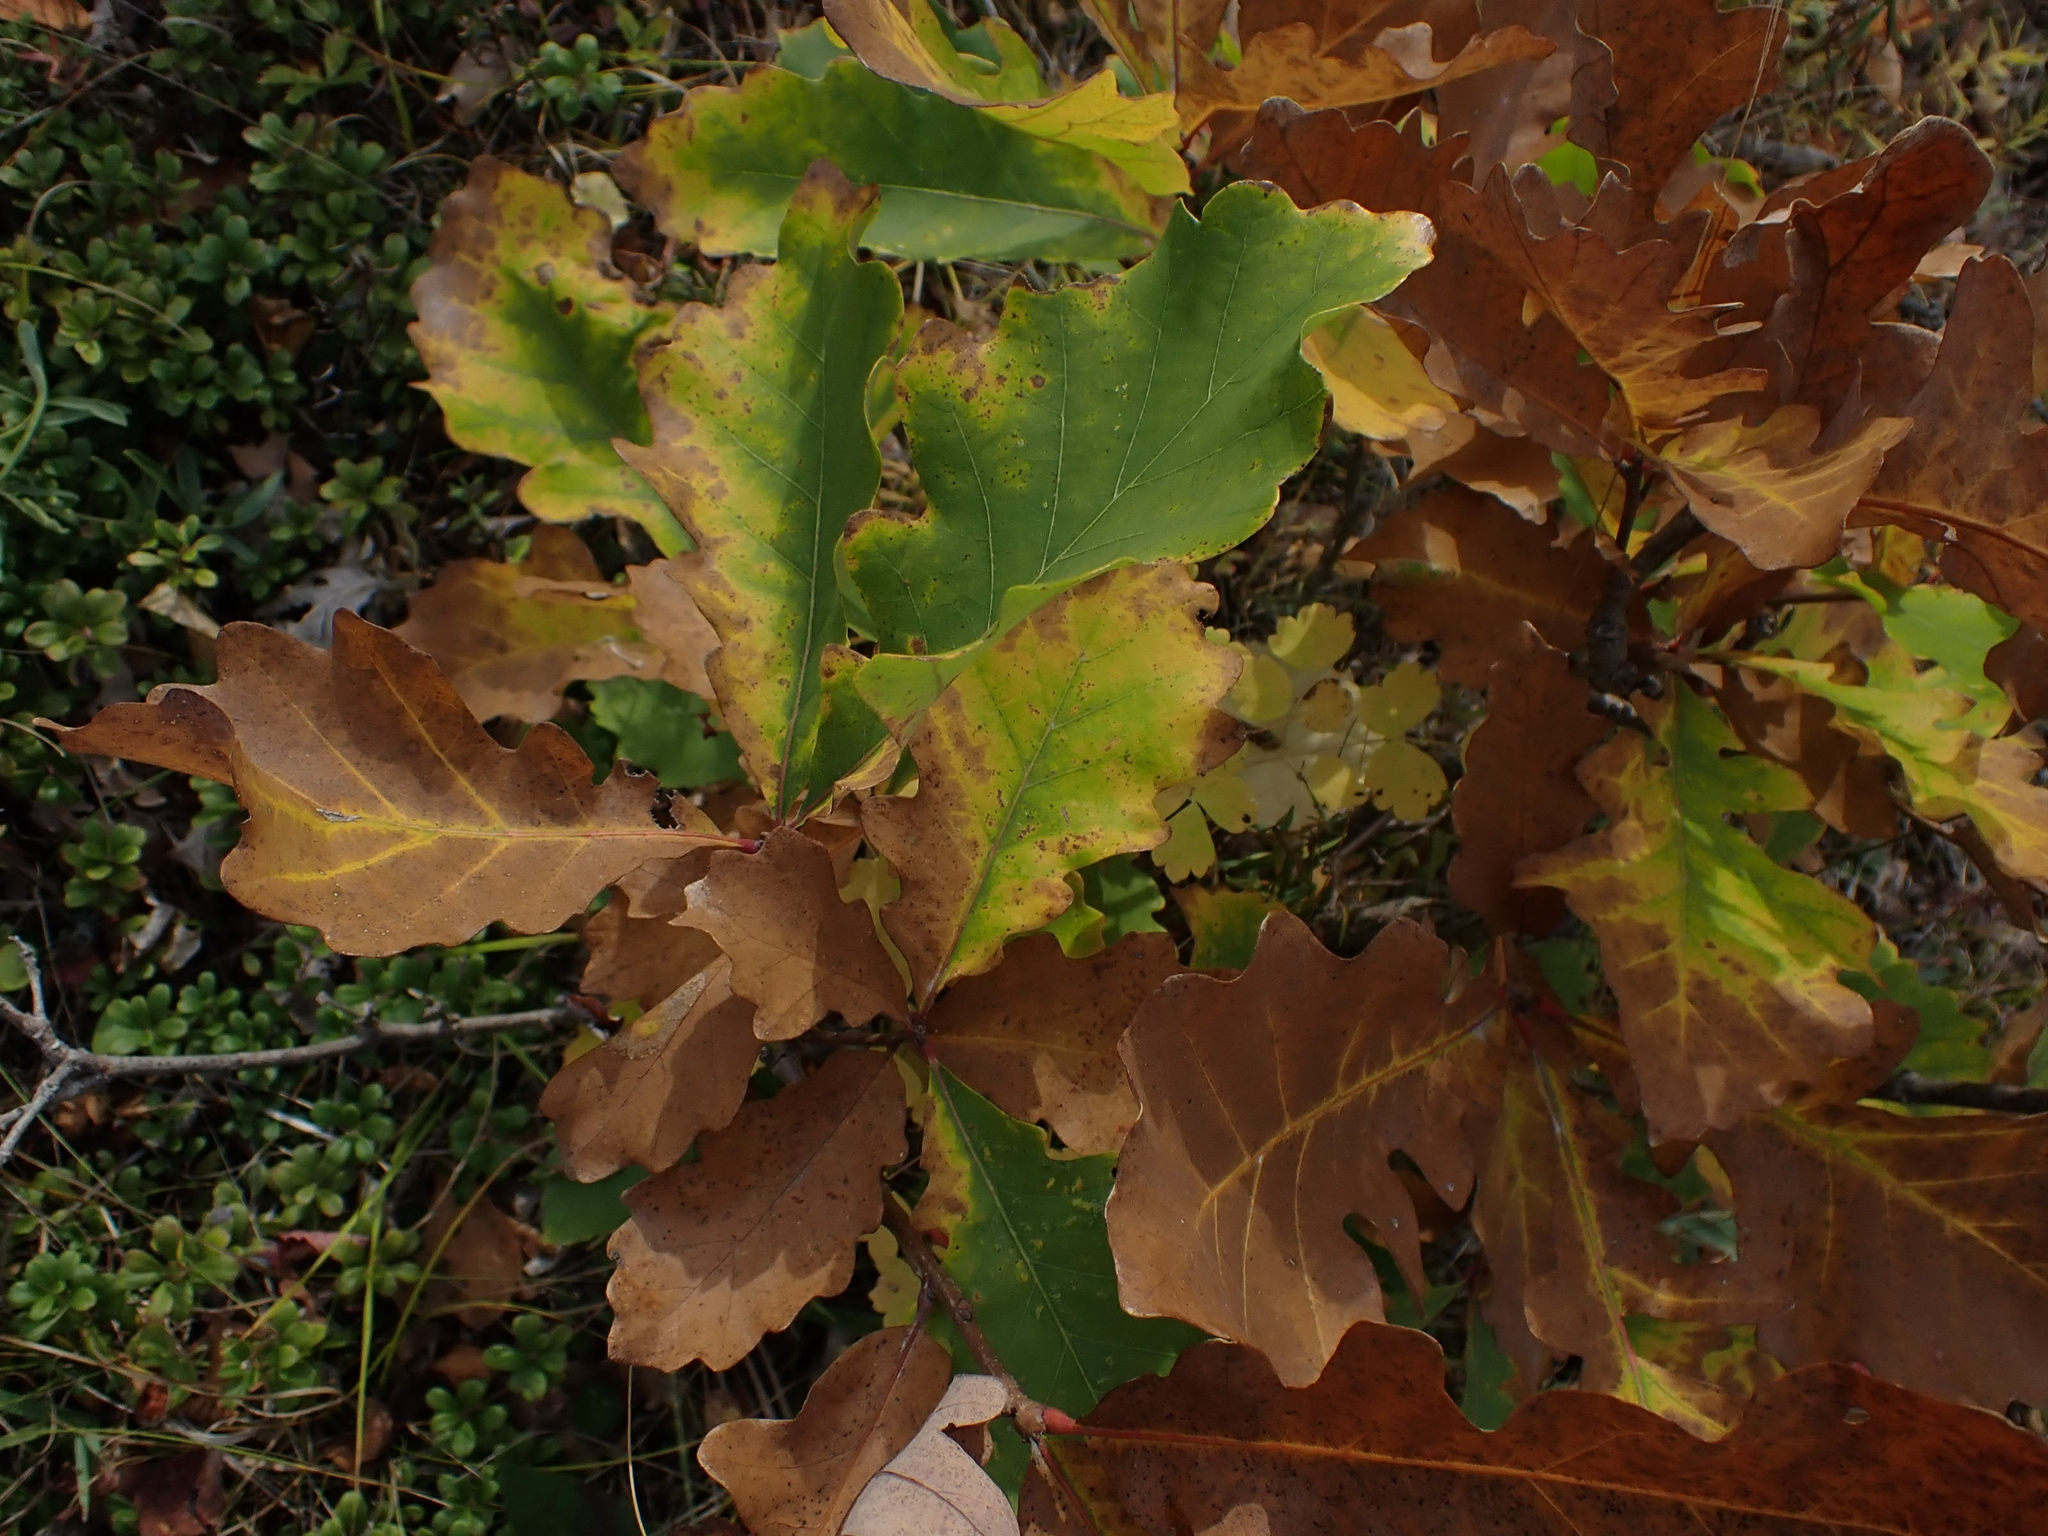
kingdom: Plantae
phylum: Tracheophyta
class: Magnoliopsida
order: Fagales
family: Fagaceae
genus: Quercus
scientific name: Quercus macrocarpa
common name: Bur oak
